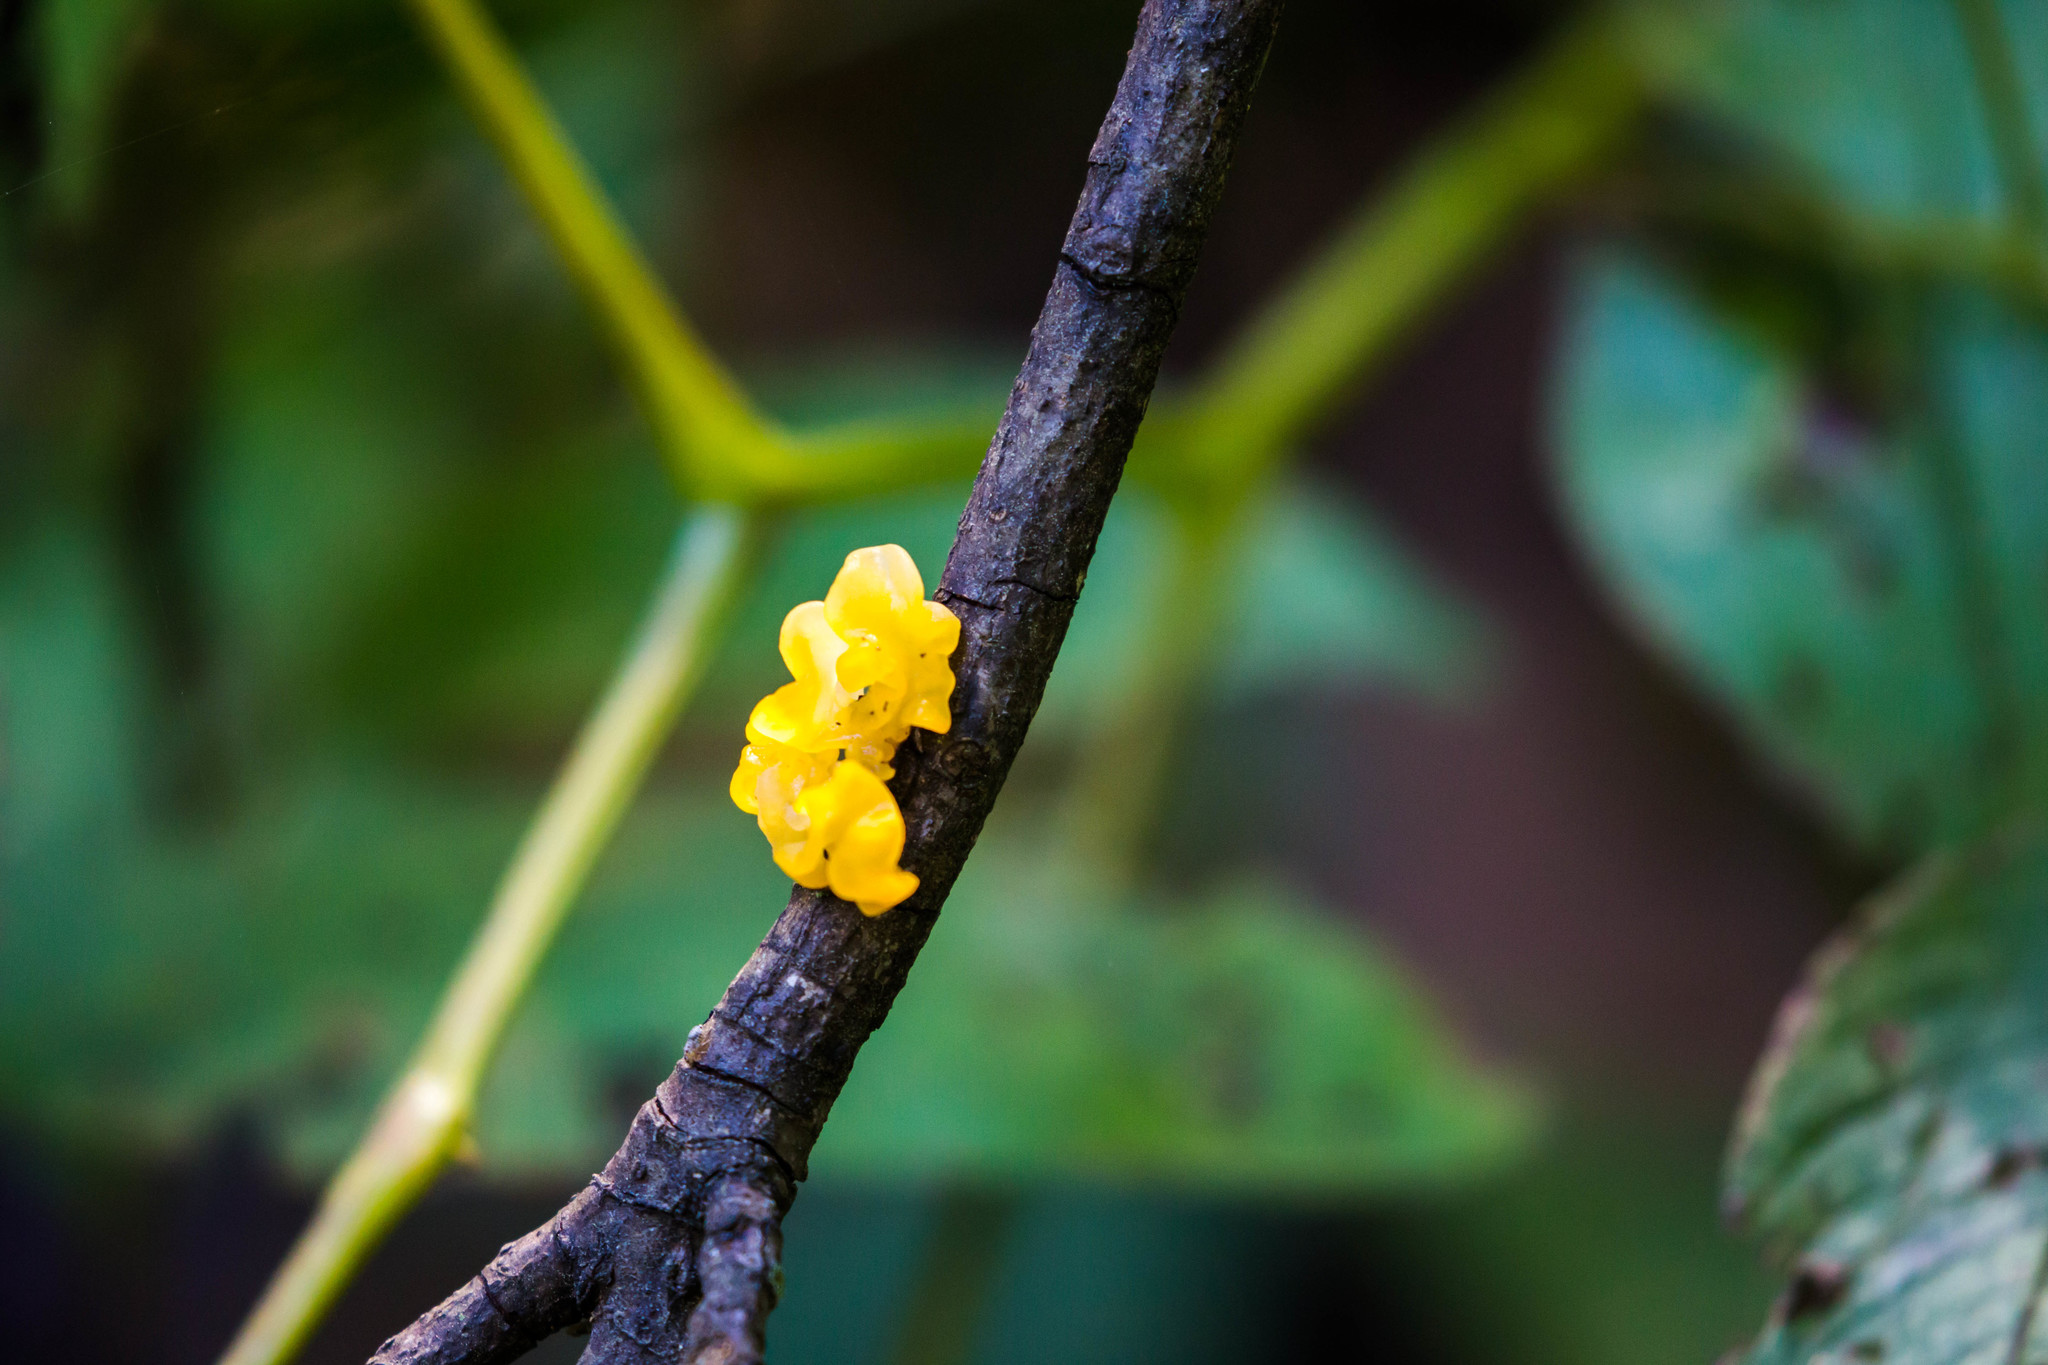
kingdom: Fungi
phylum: Basidiomycota
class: Tremellomycetes
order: Tremellales
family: Tremellaceae
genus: Tremella
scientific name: Tremella mesenterica
